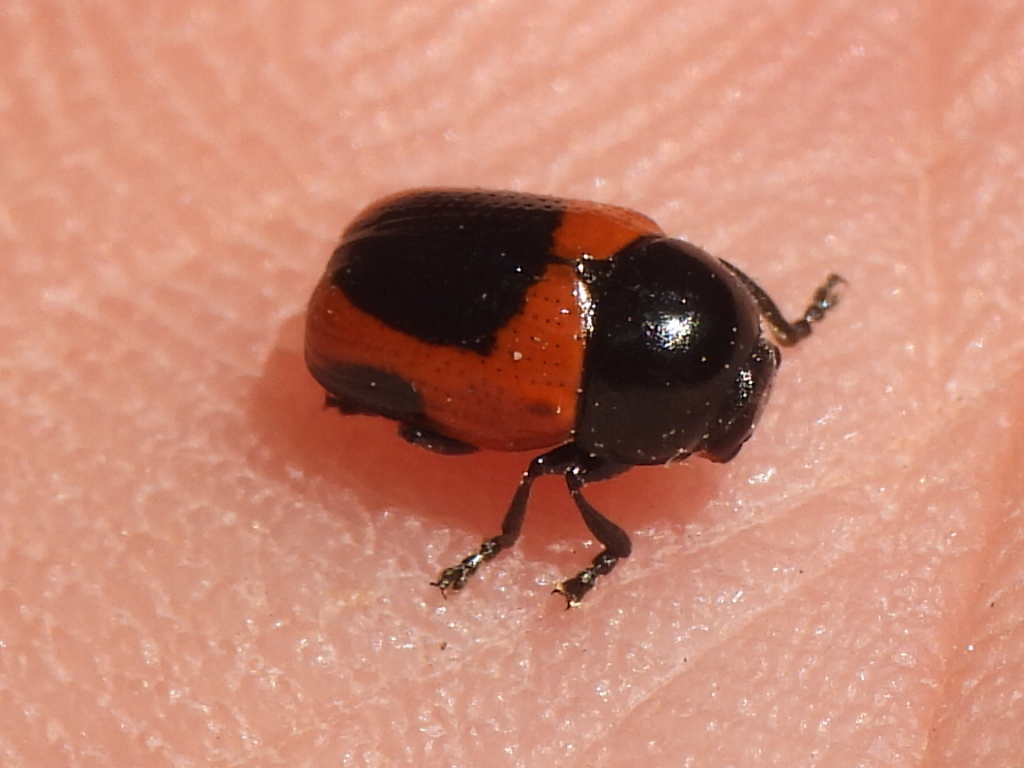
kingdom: Animalia
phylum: Arthropoda
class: Insecta
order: Coleoptera
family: Chrysomelidae
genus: Cryptocephalus
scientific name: Cryptocephalus notatus
